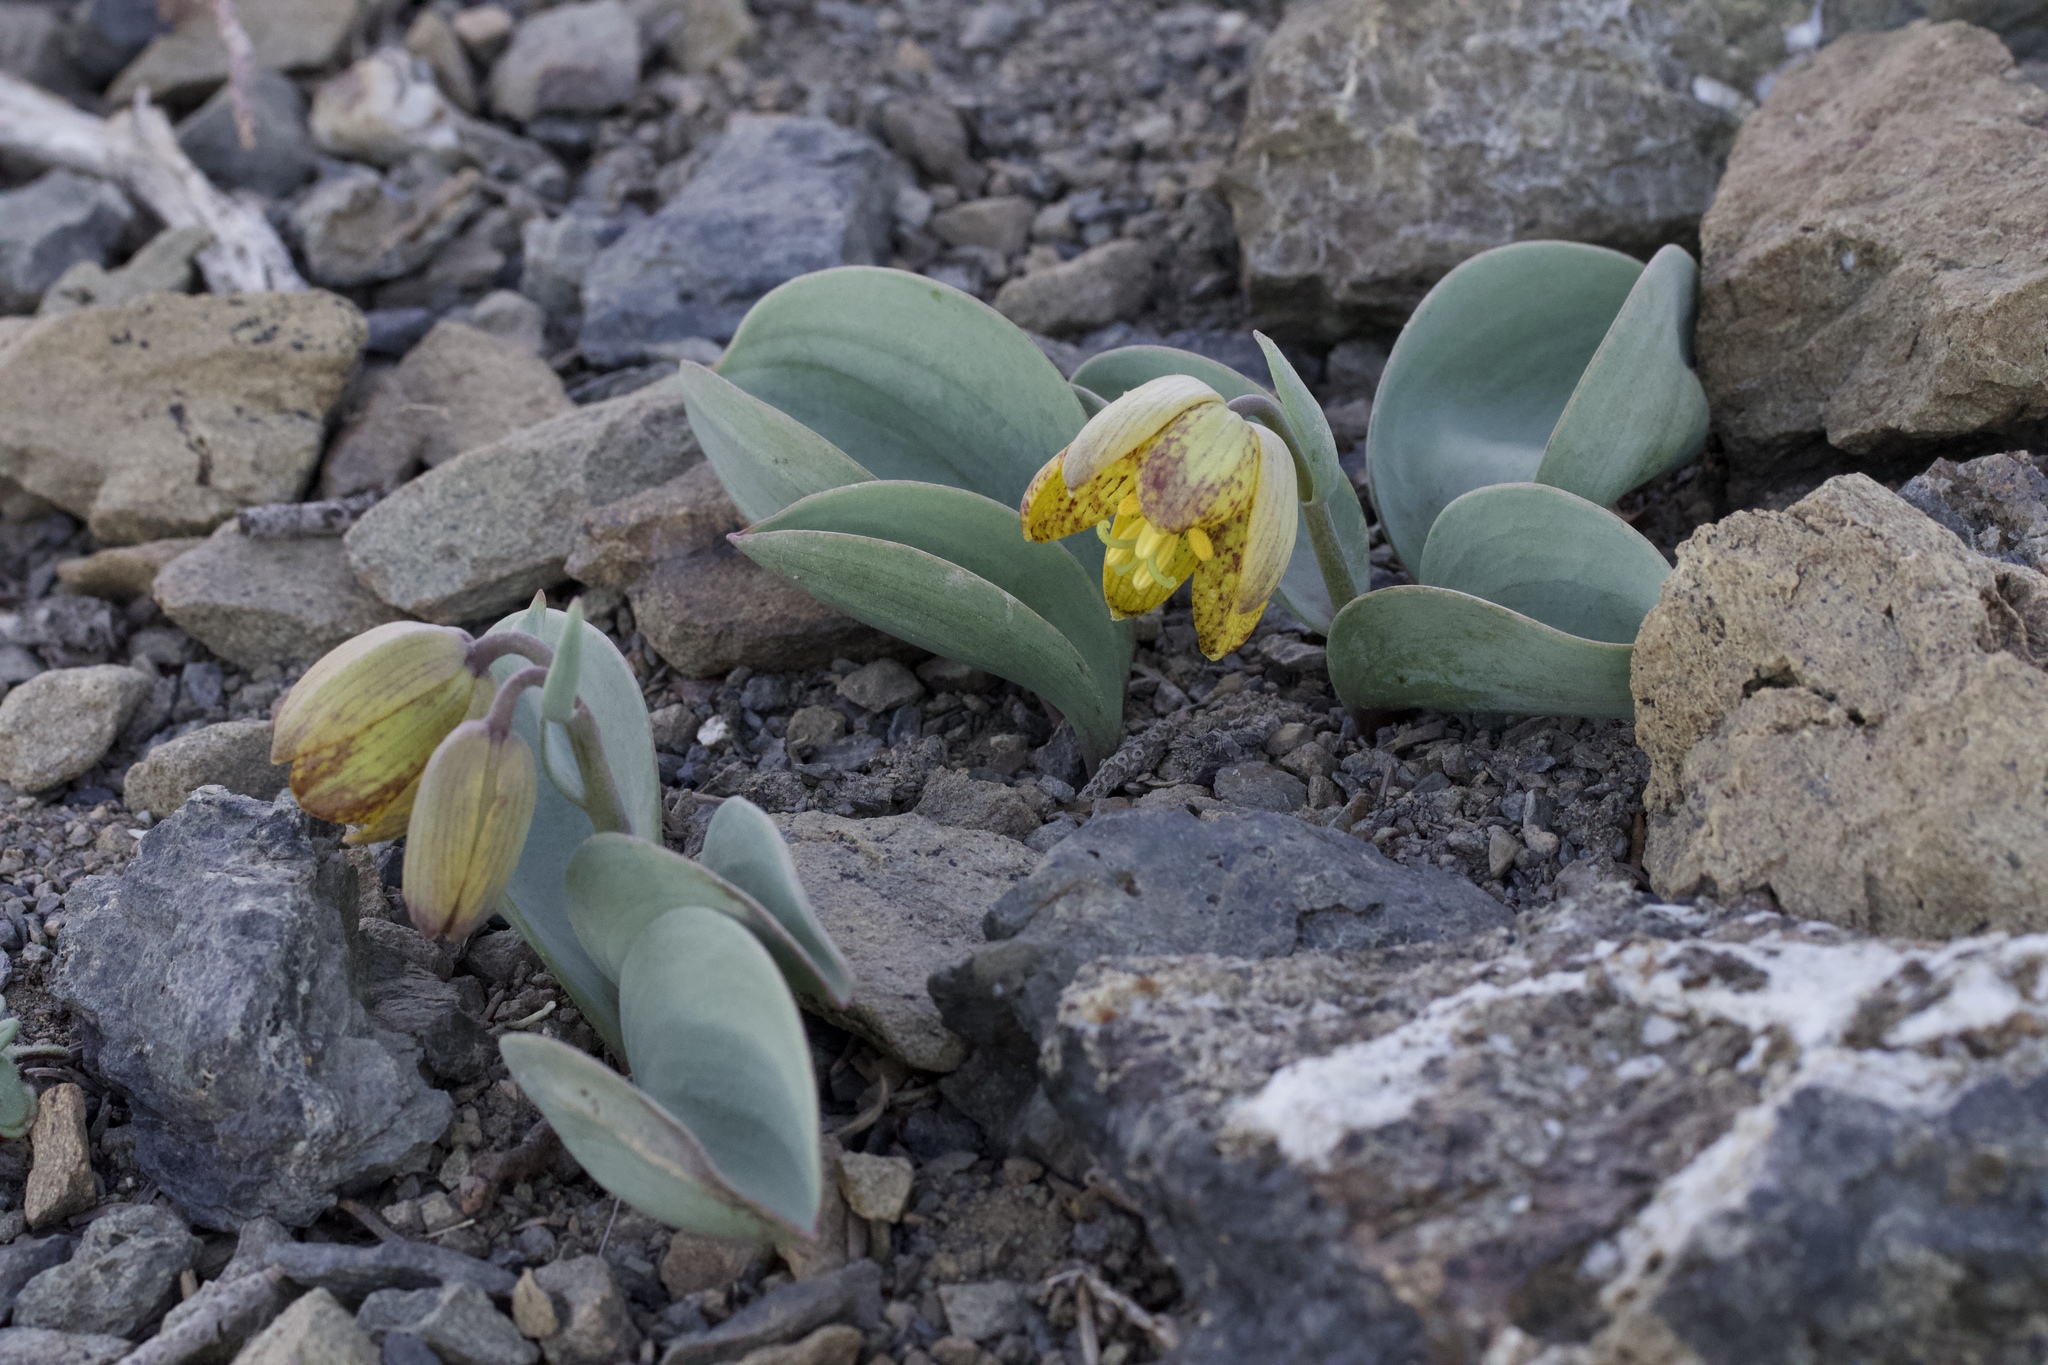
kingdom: Plantae
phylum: Tracheophyta
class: Liliopsida
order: Liliales
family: Liliaceae
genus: Fritillaria
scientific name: Fritillaria glauca
